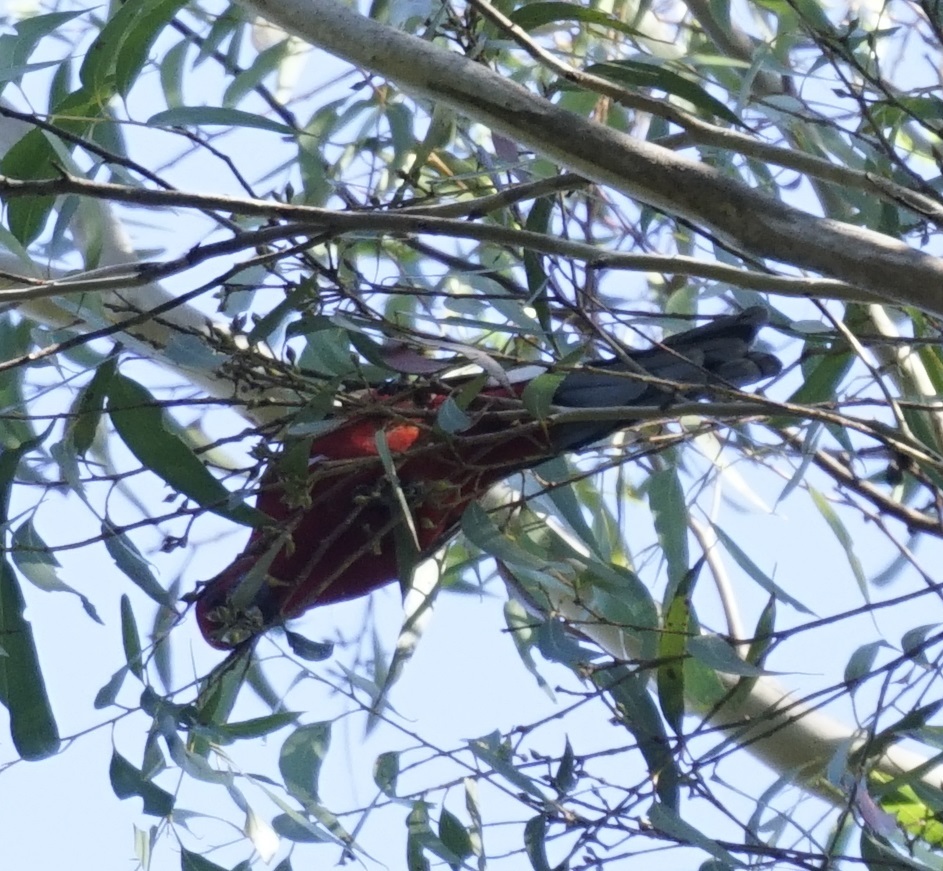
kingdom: Animalia
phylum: Chordata
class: Aves
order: Psittaciformes
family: Psittacidae
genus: Platycercus
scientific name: Platycercus elegans
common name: Crimson rosella
